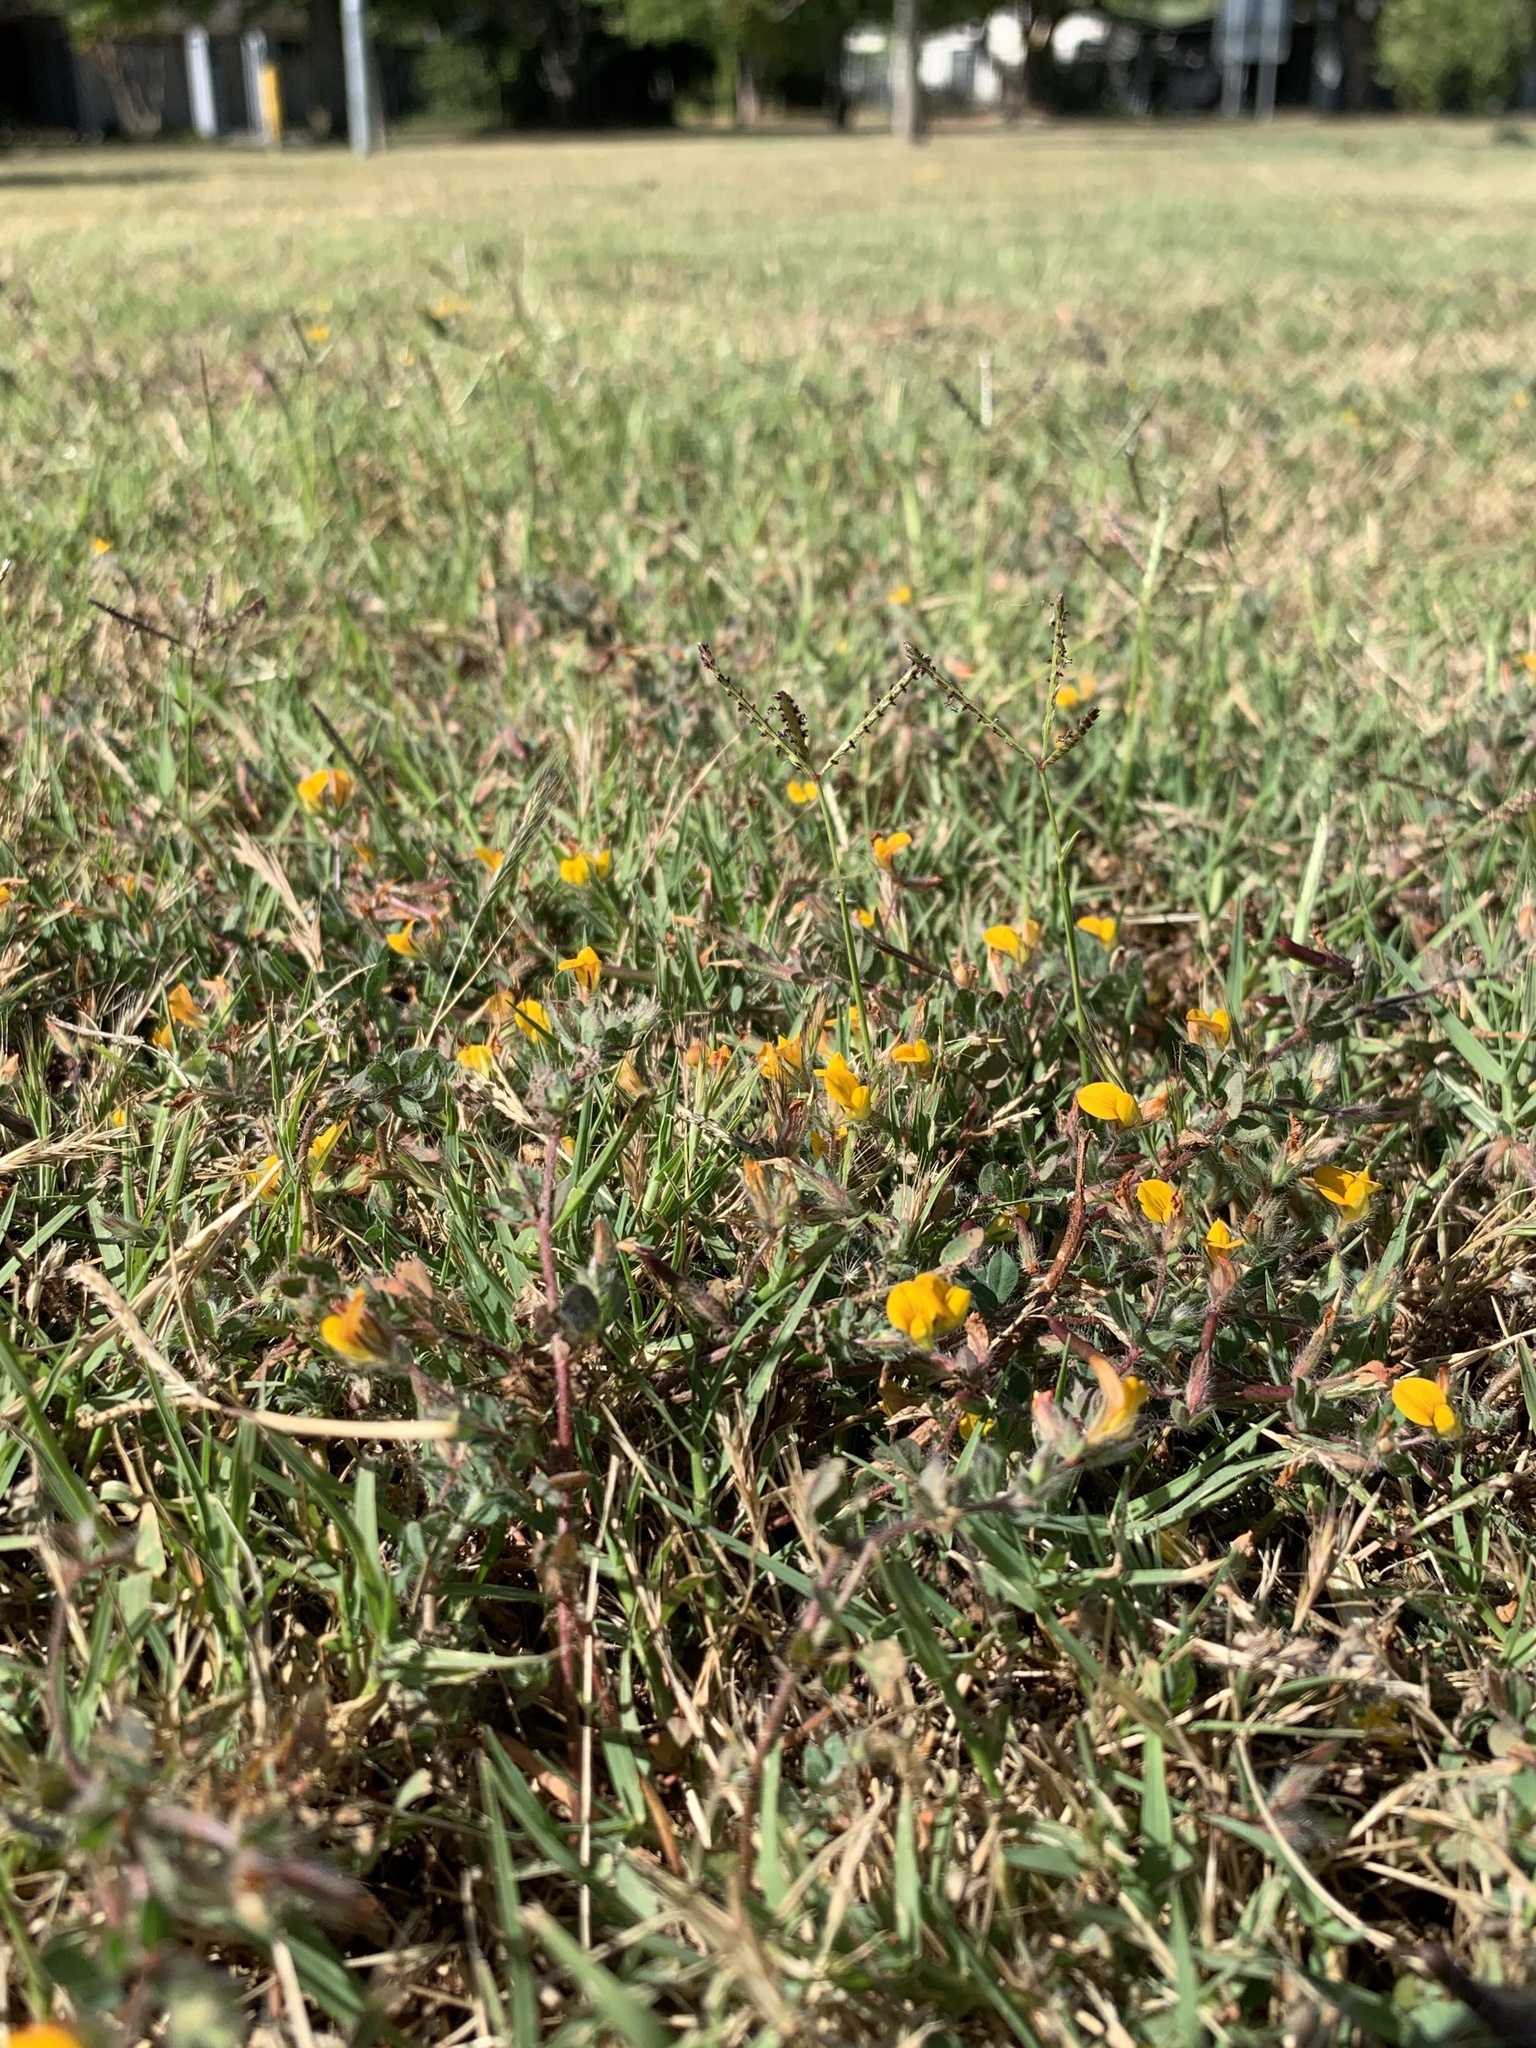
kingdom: Plantae
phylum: Tracheophyta
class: Magnoliopsida
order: Fabales
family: Fabaceae
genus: Lotus
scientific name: Lotus subbiflorus
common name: Hairy bird's-foot trefoil
